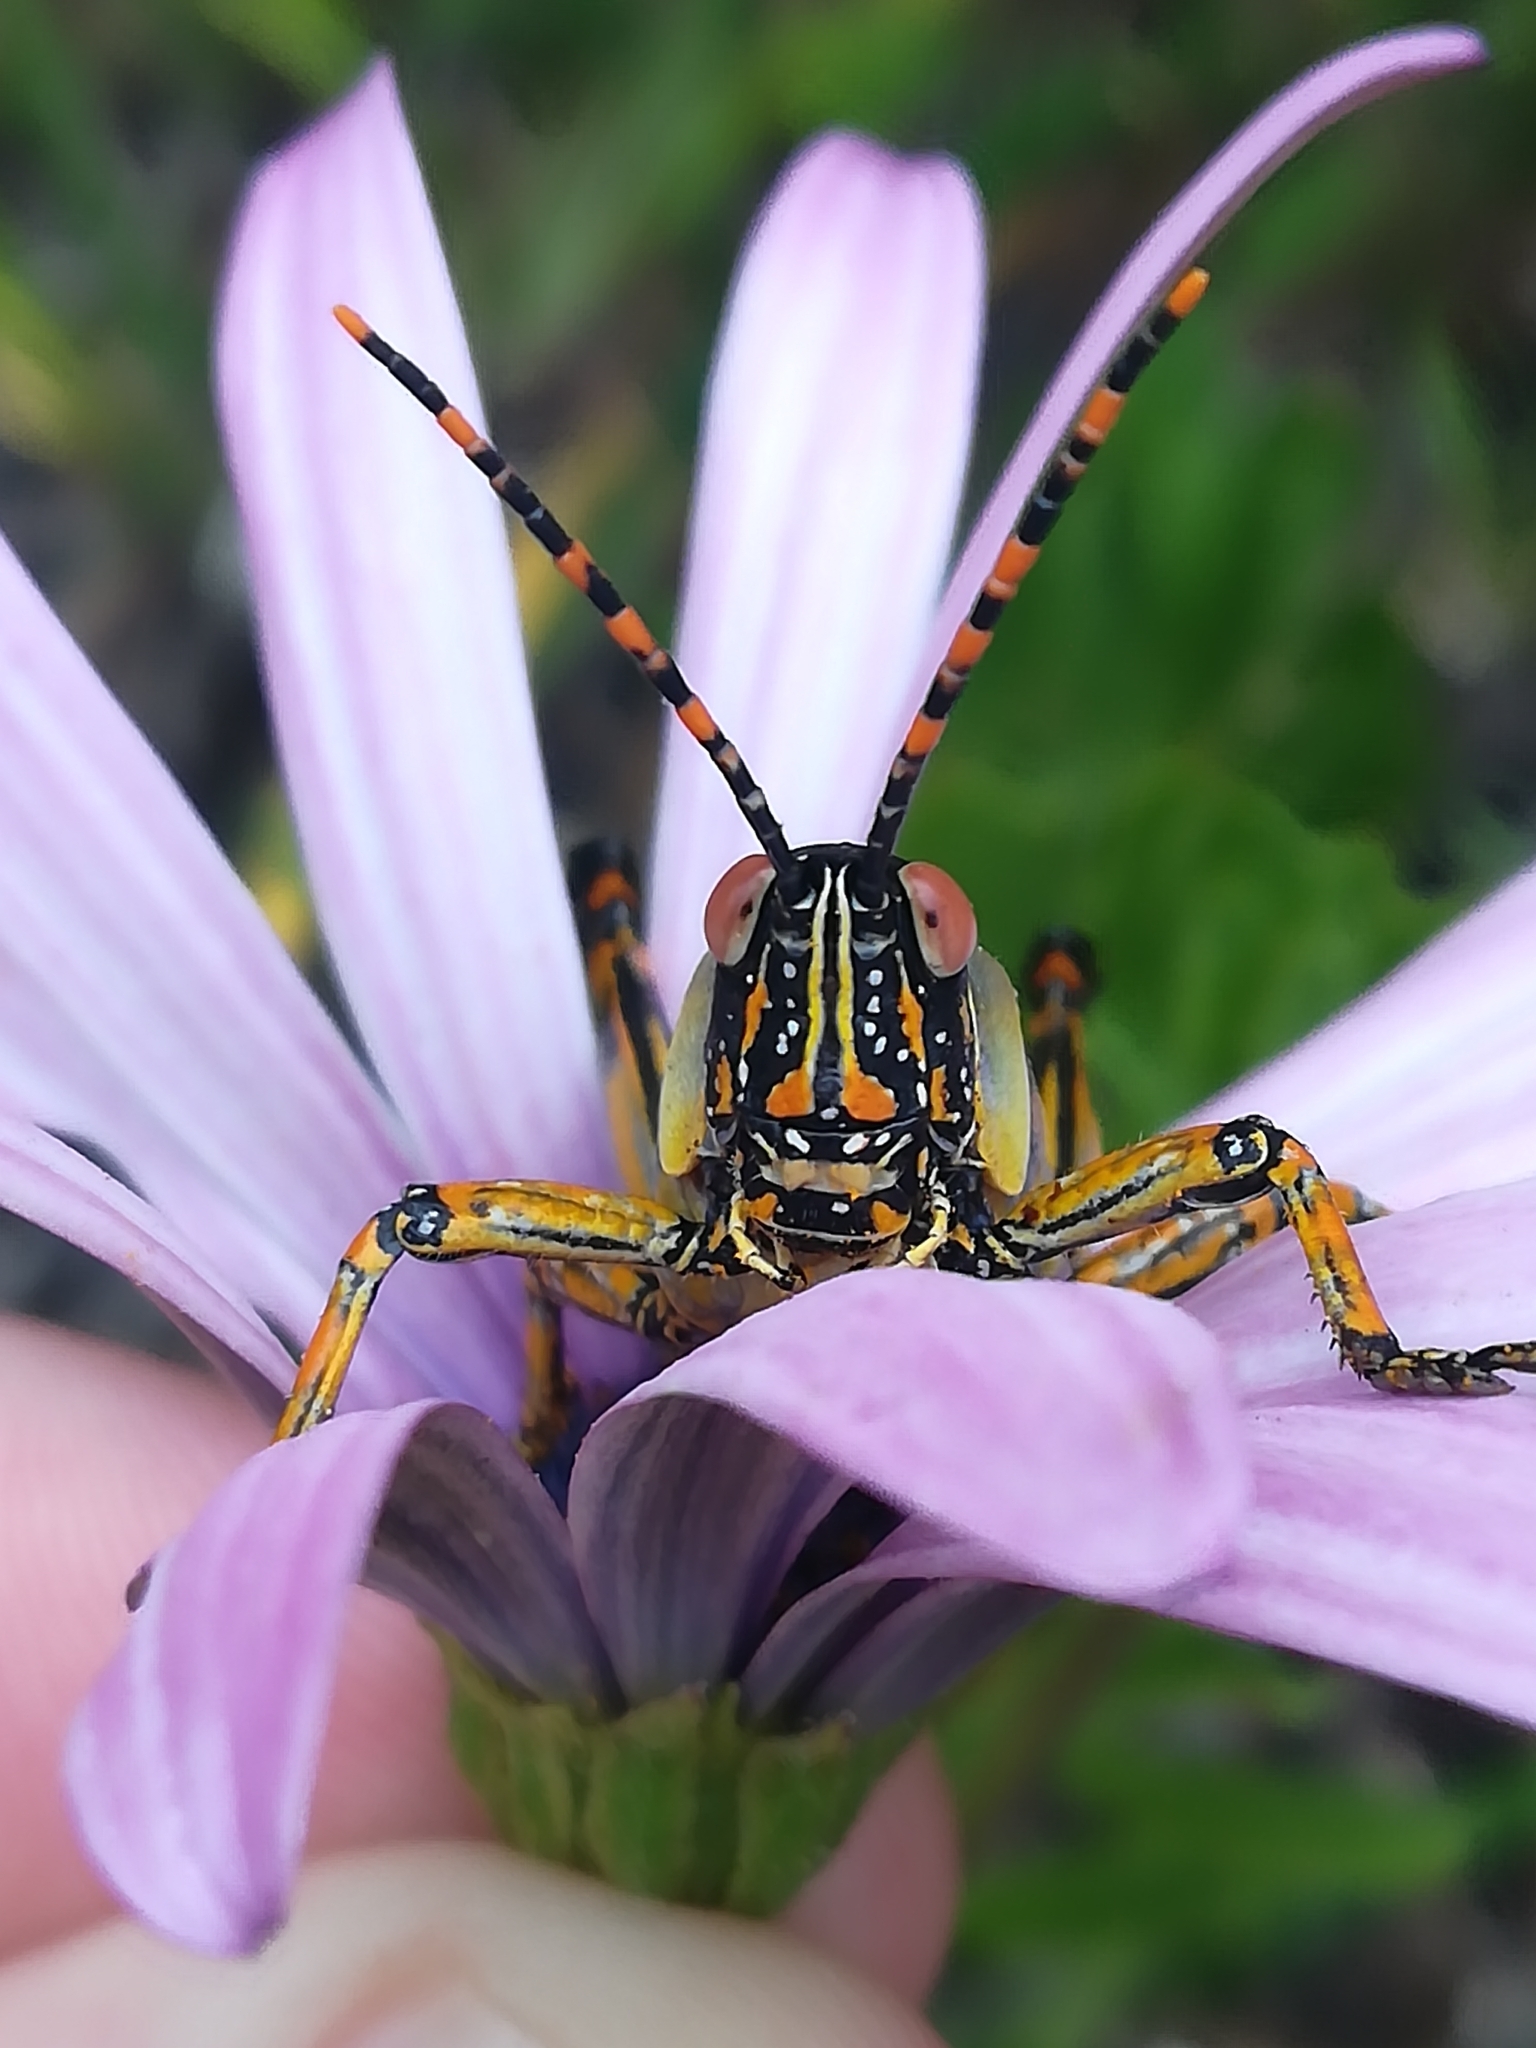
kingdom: Animalia
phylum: Arthropoda
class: Insecta
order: Orthoptera
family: Pyrgomorphidae
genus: Zonocerus
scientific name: Zonocerus elegans
